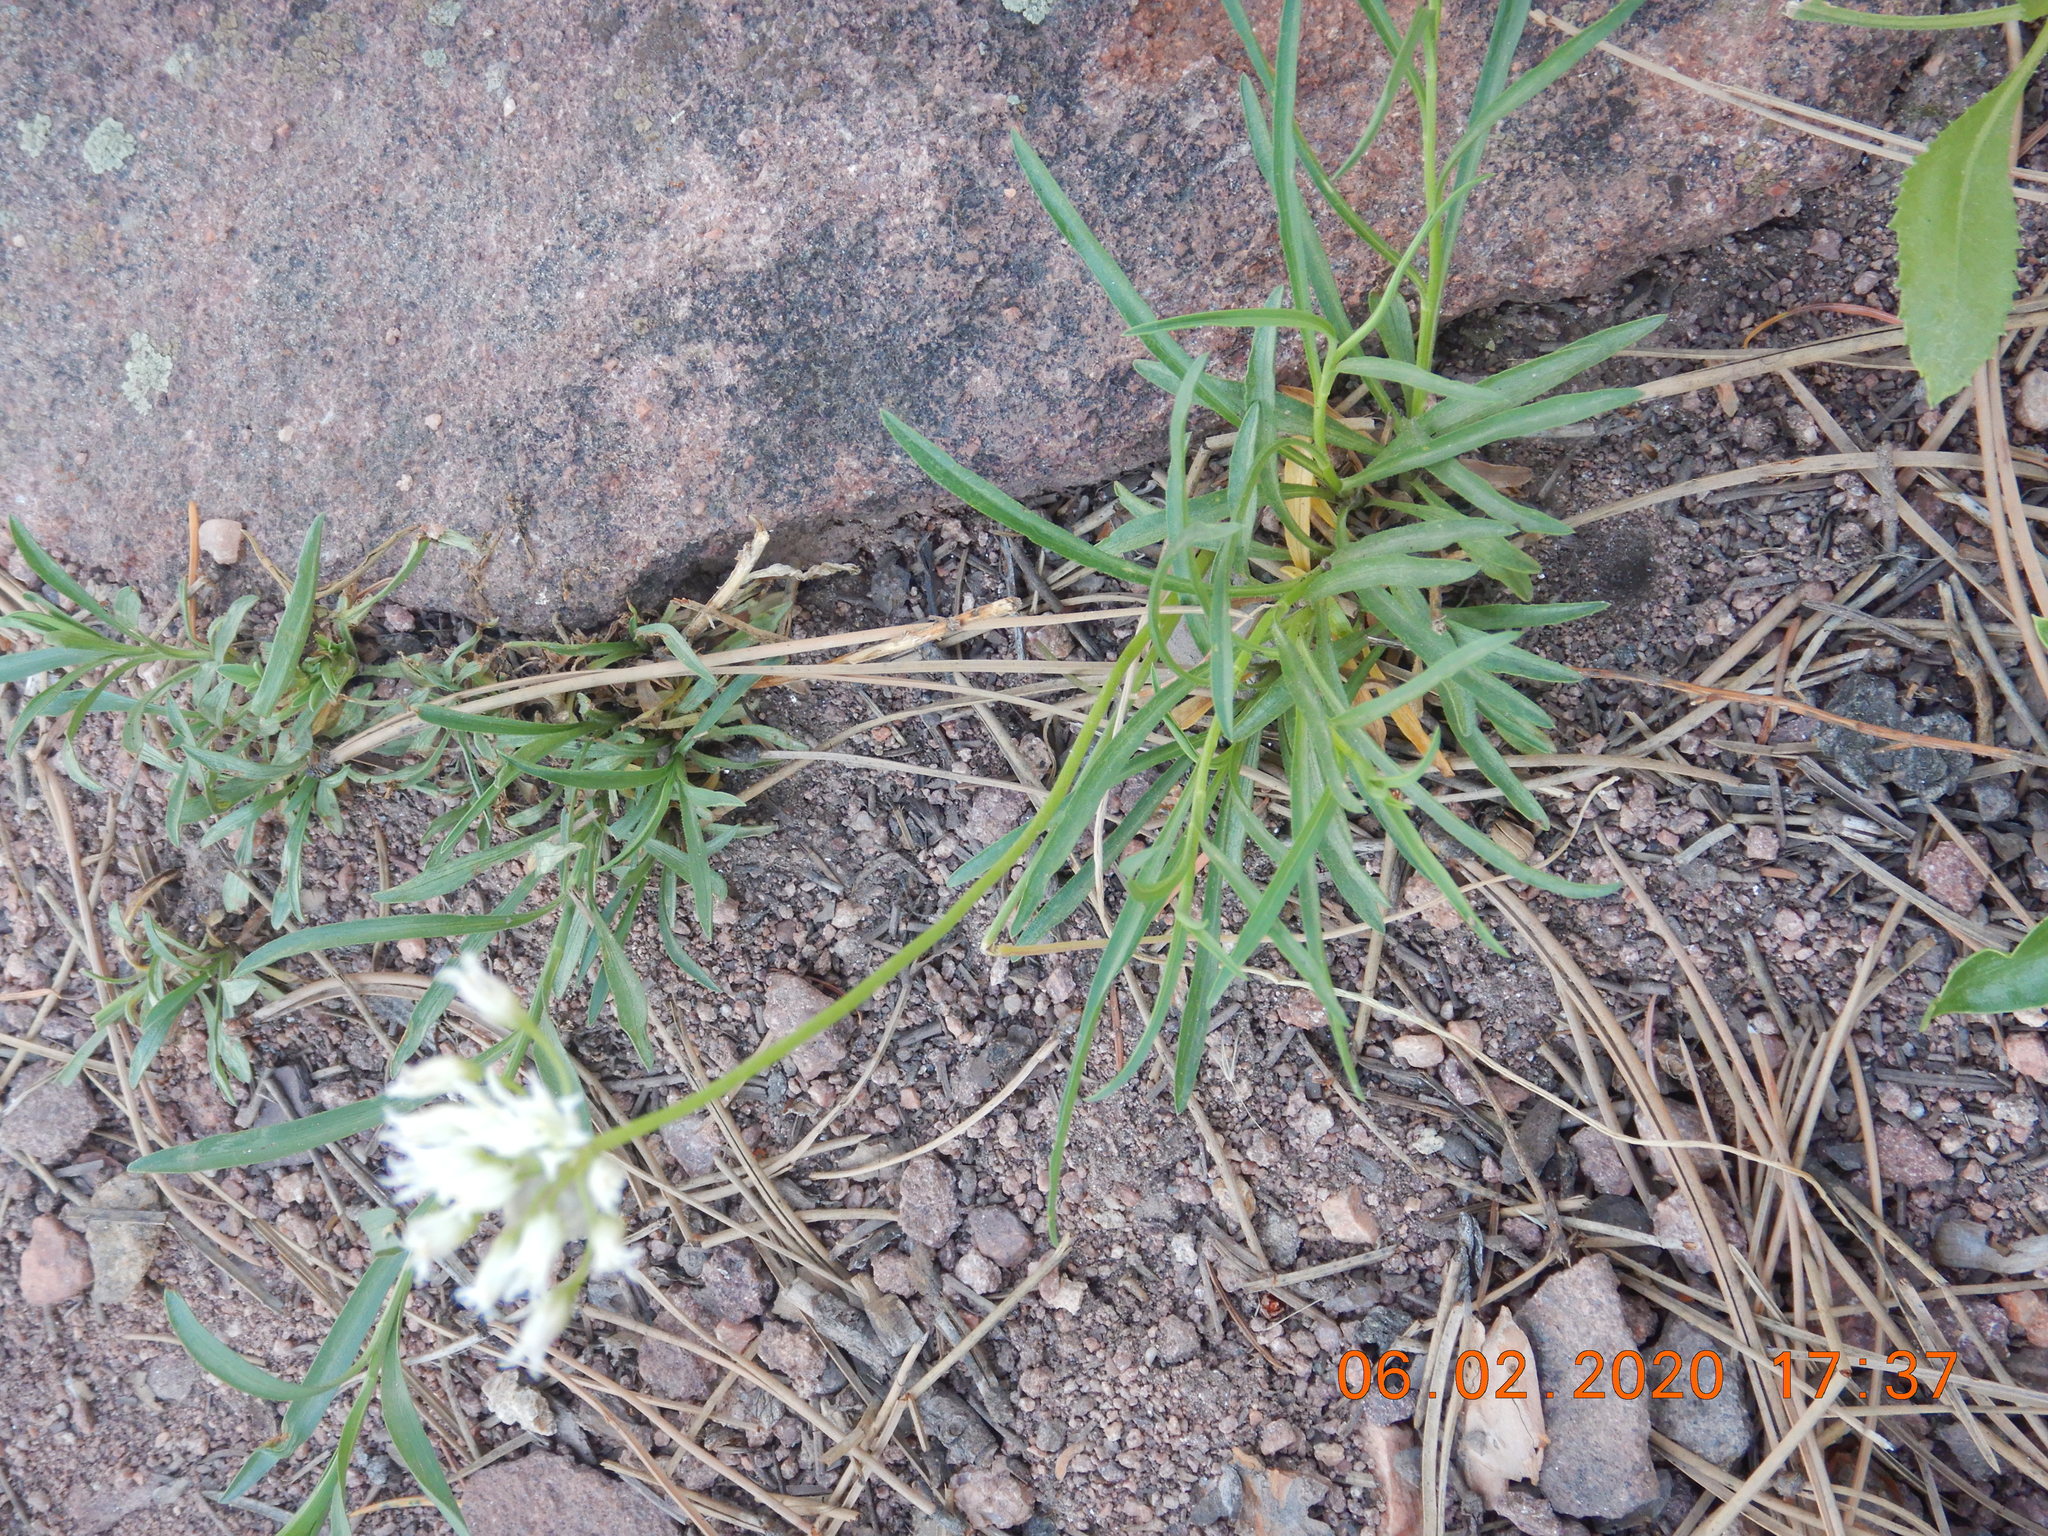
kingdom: Plantae
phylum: Tracheophyta
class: Liliopsida
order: Asparagales
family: Amaryllidaceae
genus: Allium
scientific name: Allium textile
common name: Prairie onion
